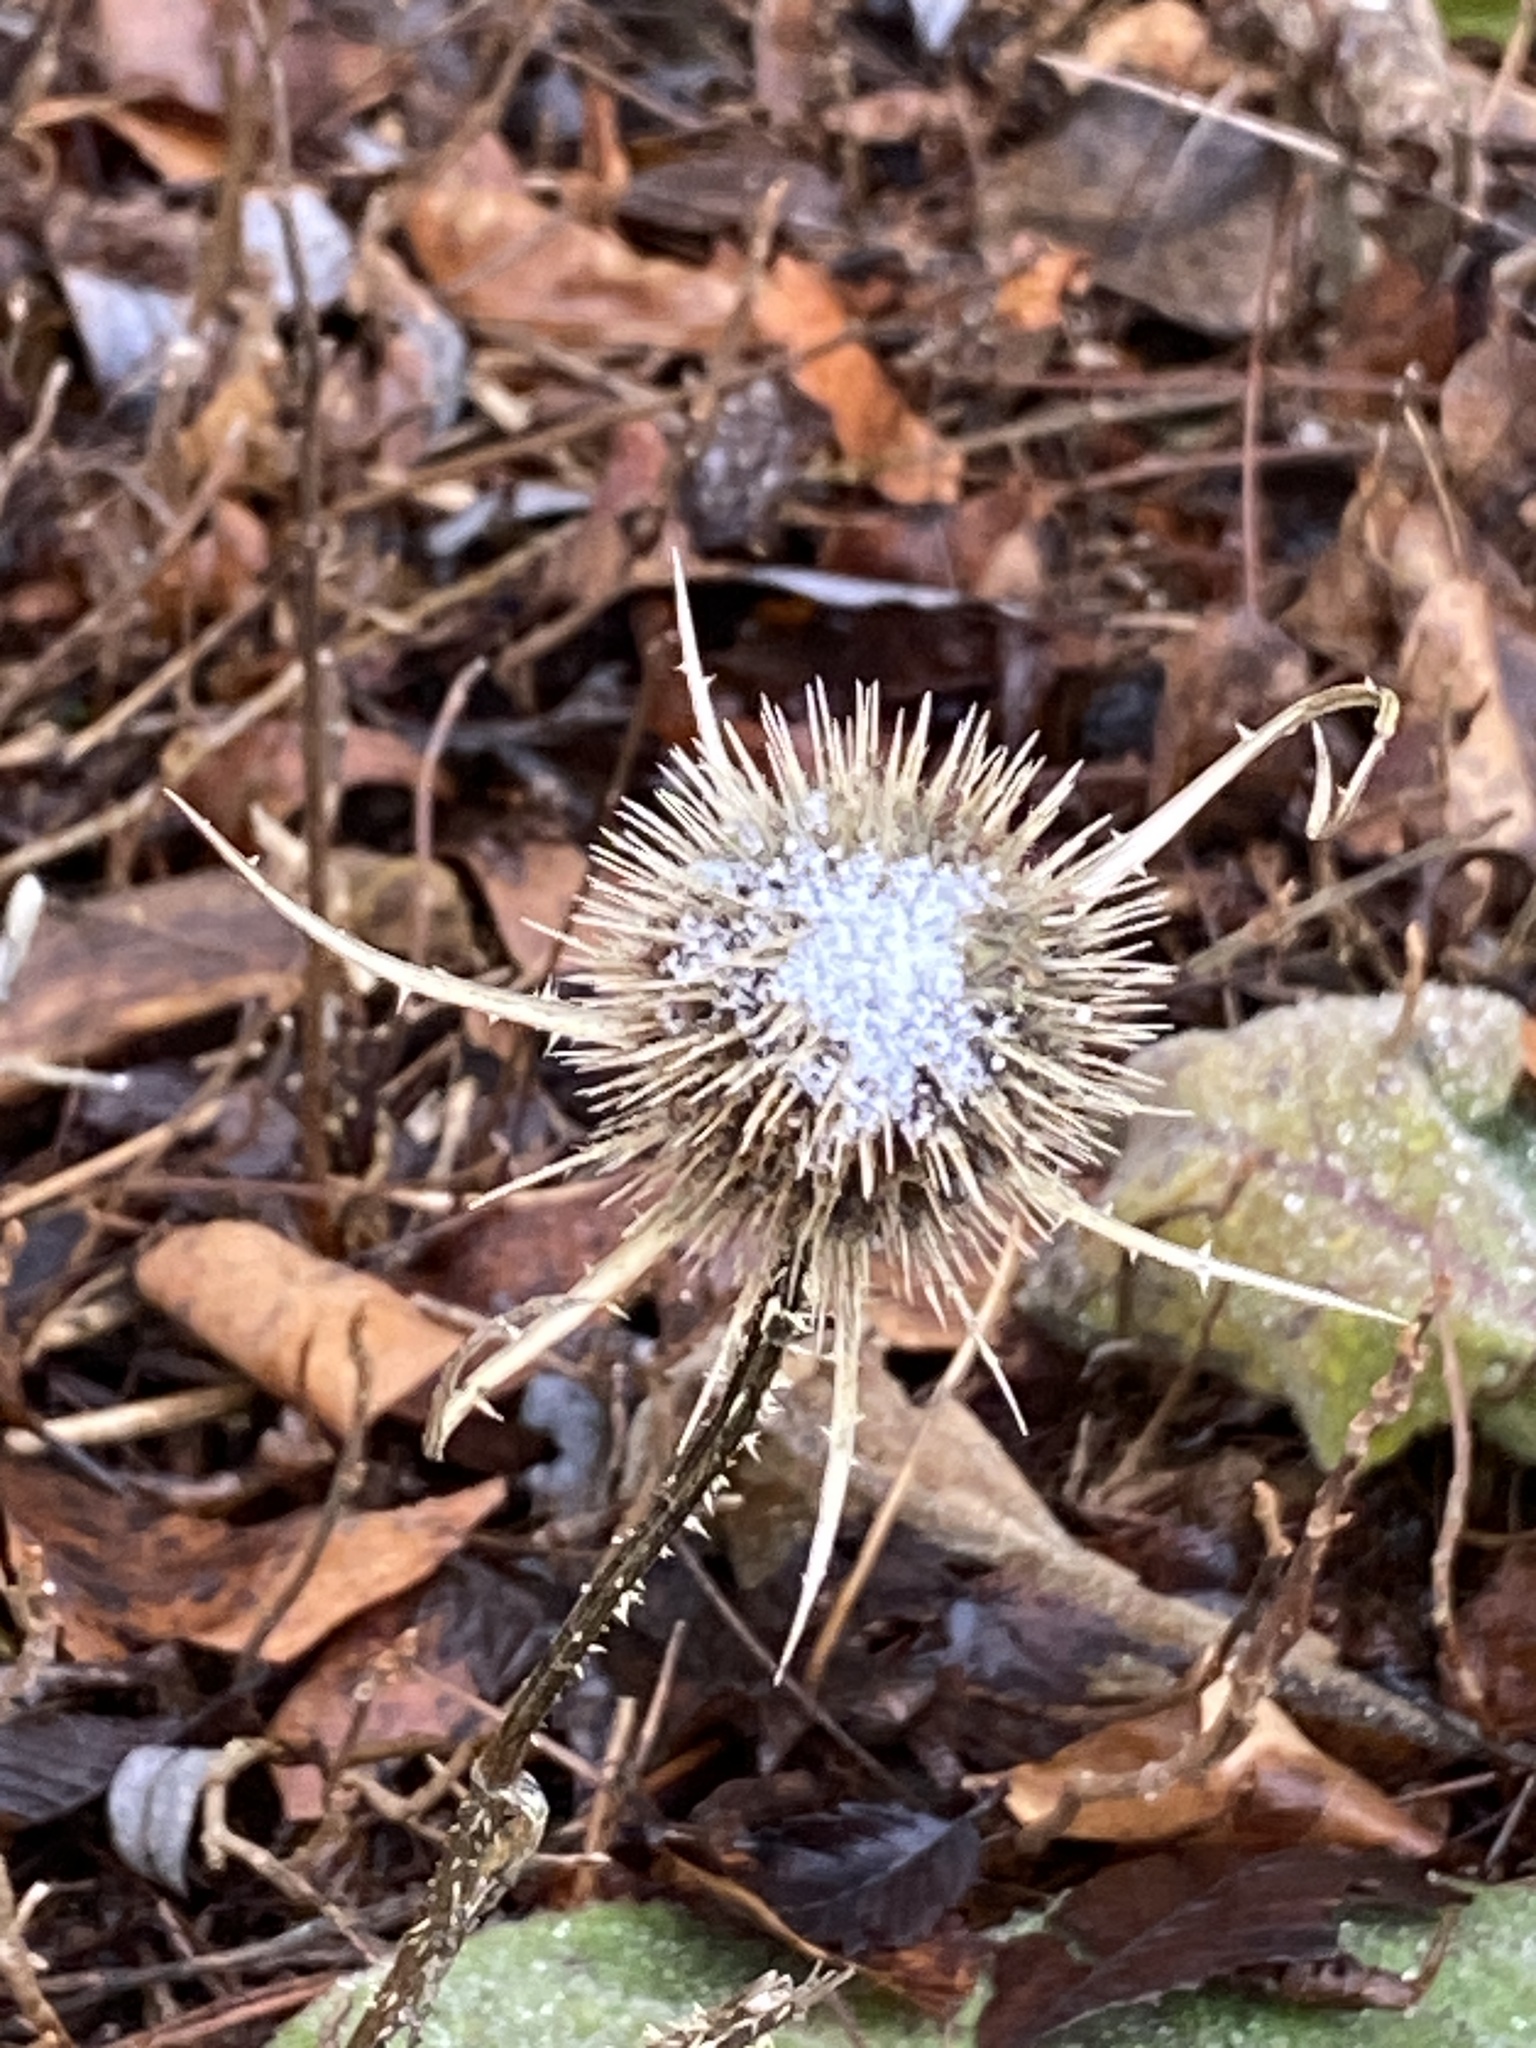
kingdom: Plantae
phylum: Tracheophyta
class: Magnoliopsida
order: Dipsacales
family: Caprifoliaceae
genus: Dipsacus
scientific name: Dipsacus fullonum
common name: Teasel
